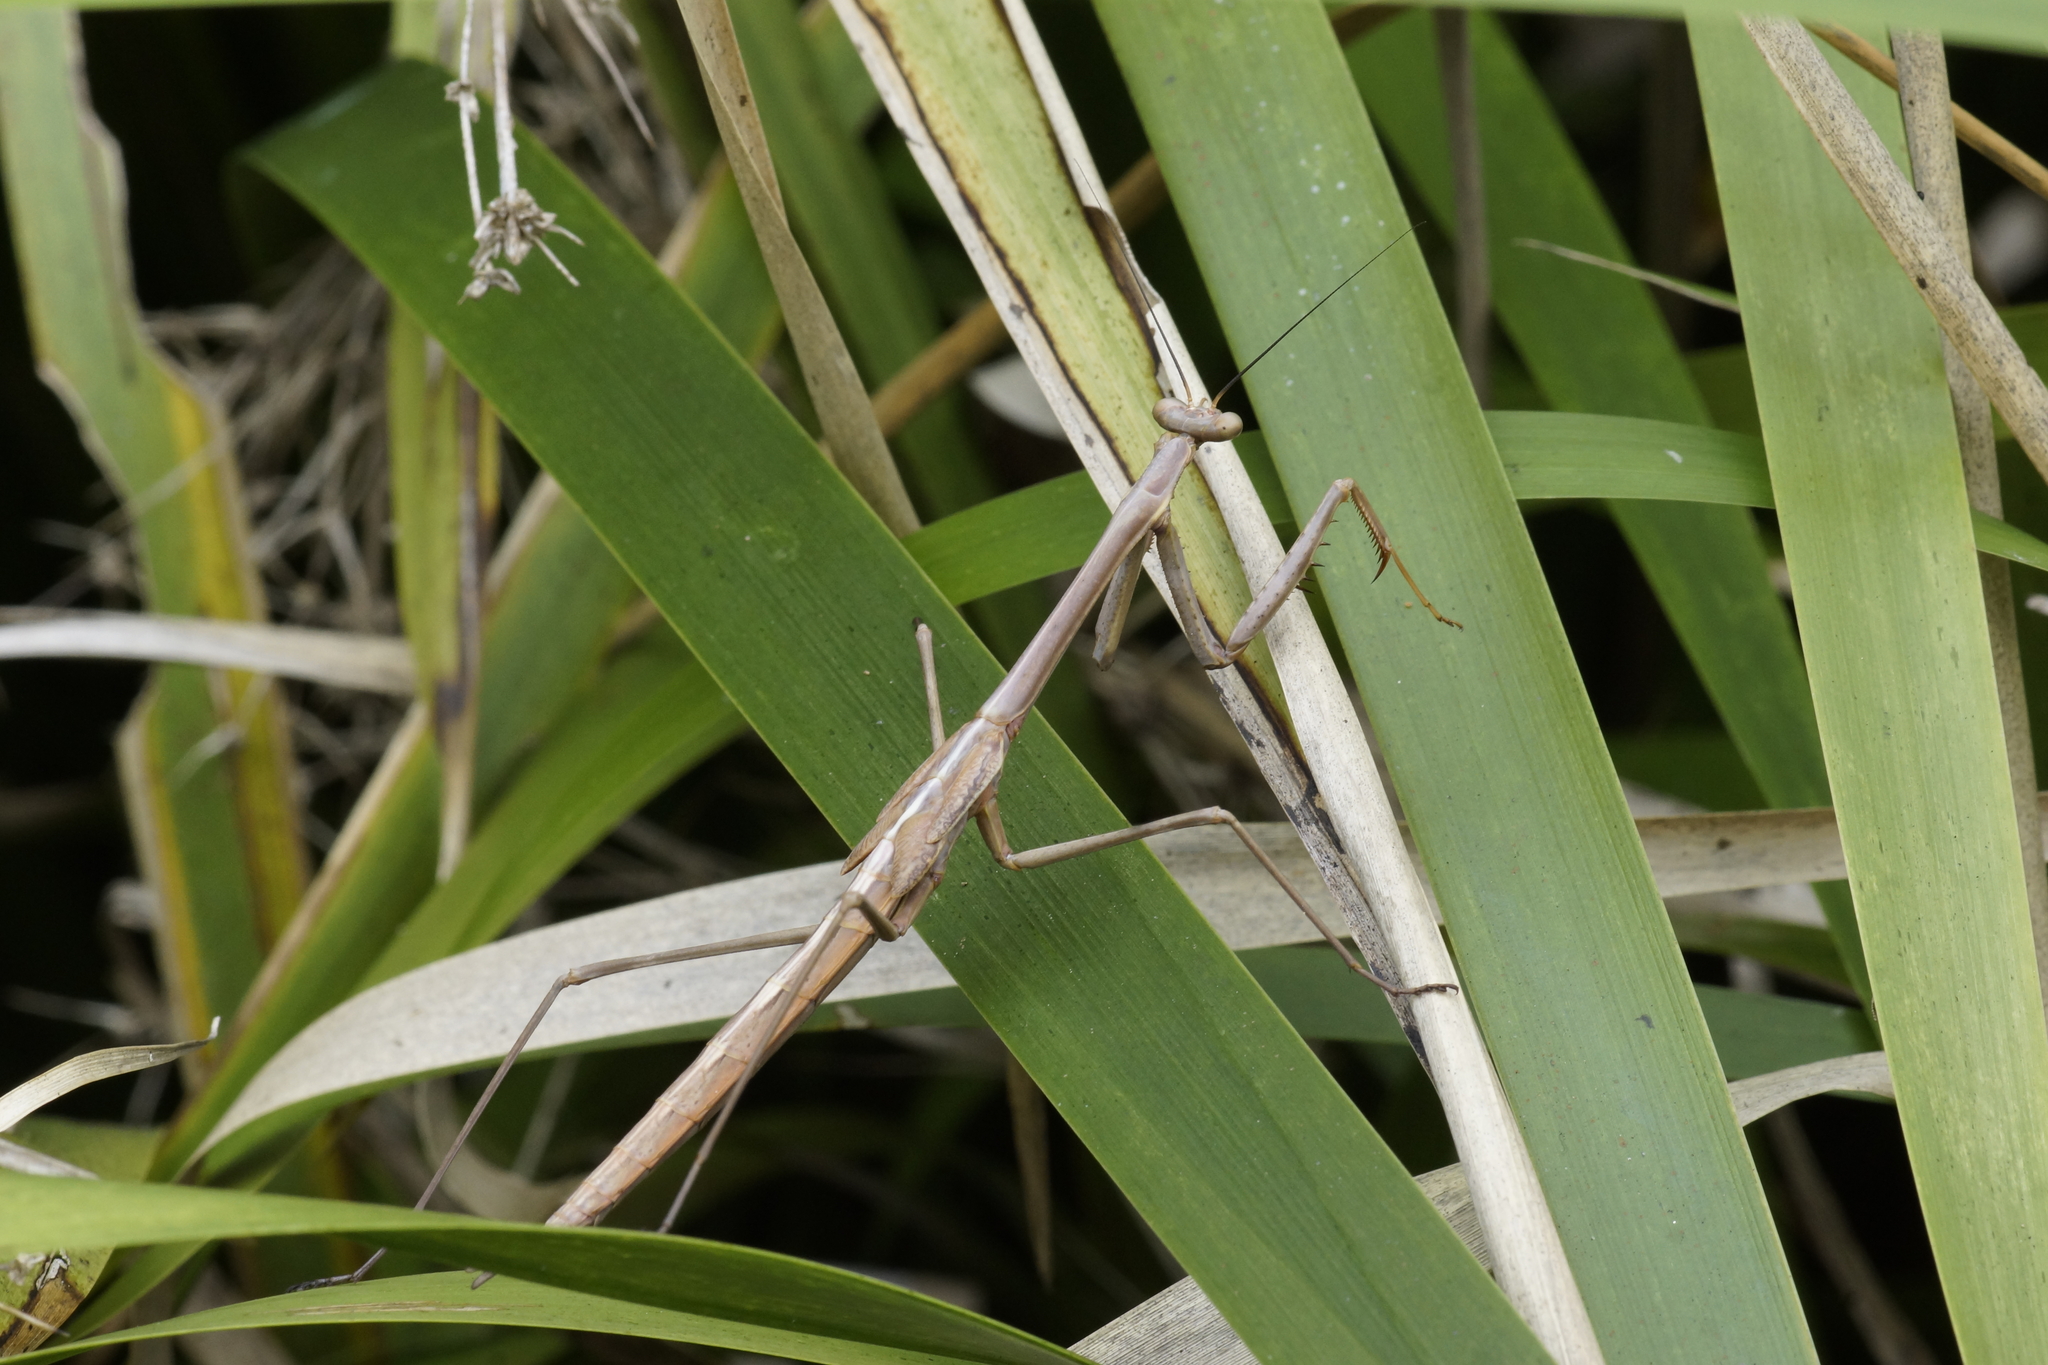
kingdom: Animalia
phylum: Arthropoda
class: Insecta
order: Mantodea
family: Mantidae
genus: Archimantis
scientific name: Archimantis latistyla
